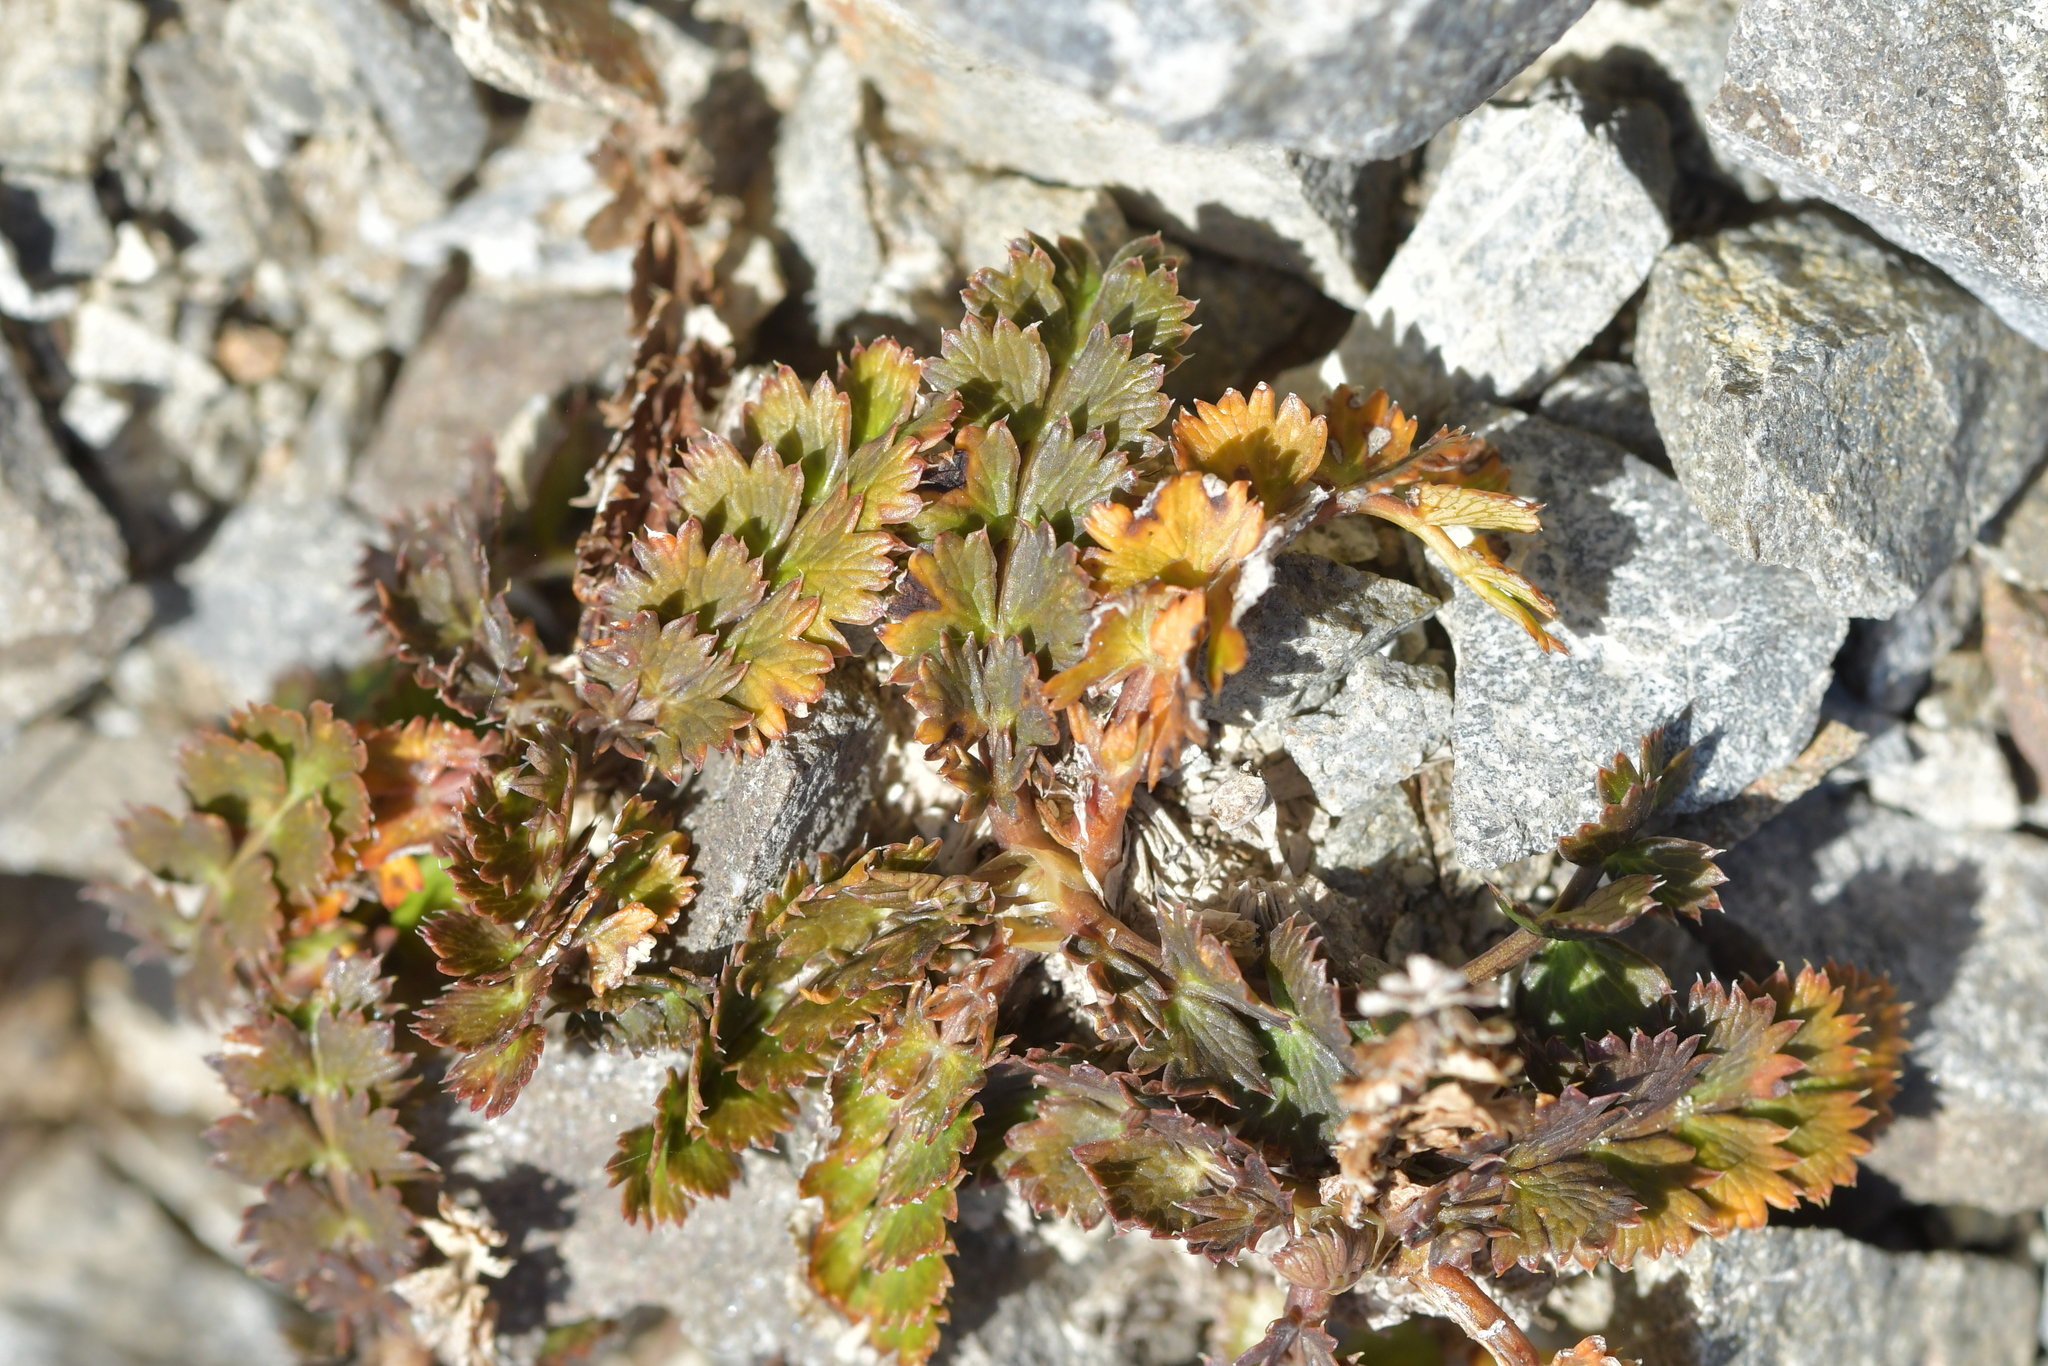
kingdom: Plantae
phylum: Tracheophyta
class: Magnoliopsida
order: Apiales
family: Apiaceae
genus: Anisotome
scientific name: Anisotome aromatica
